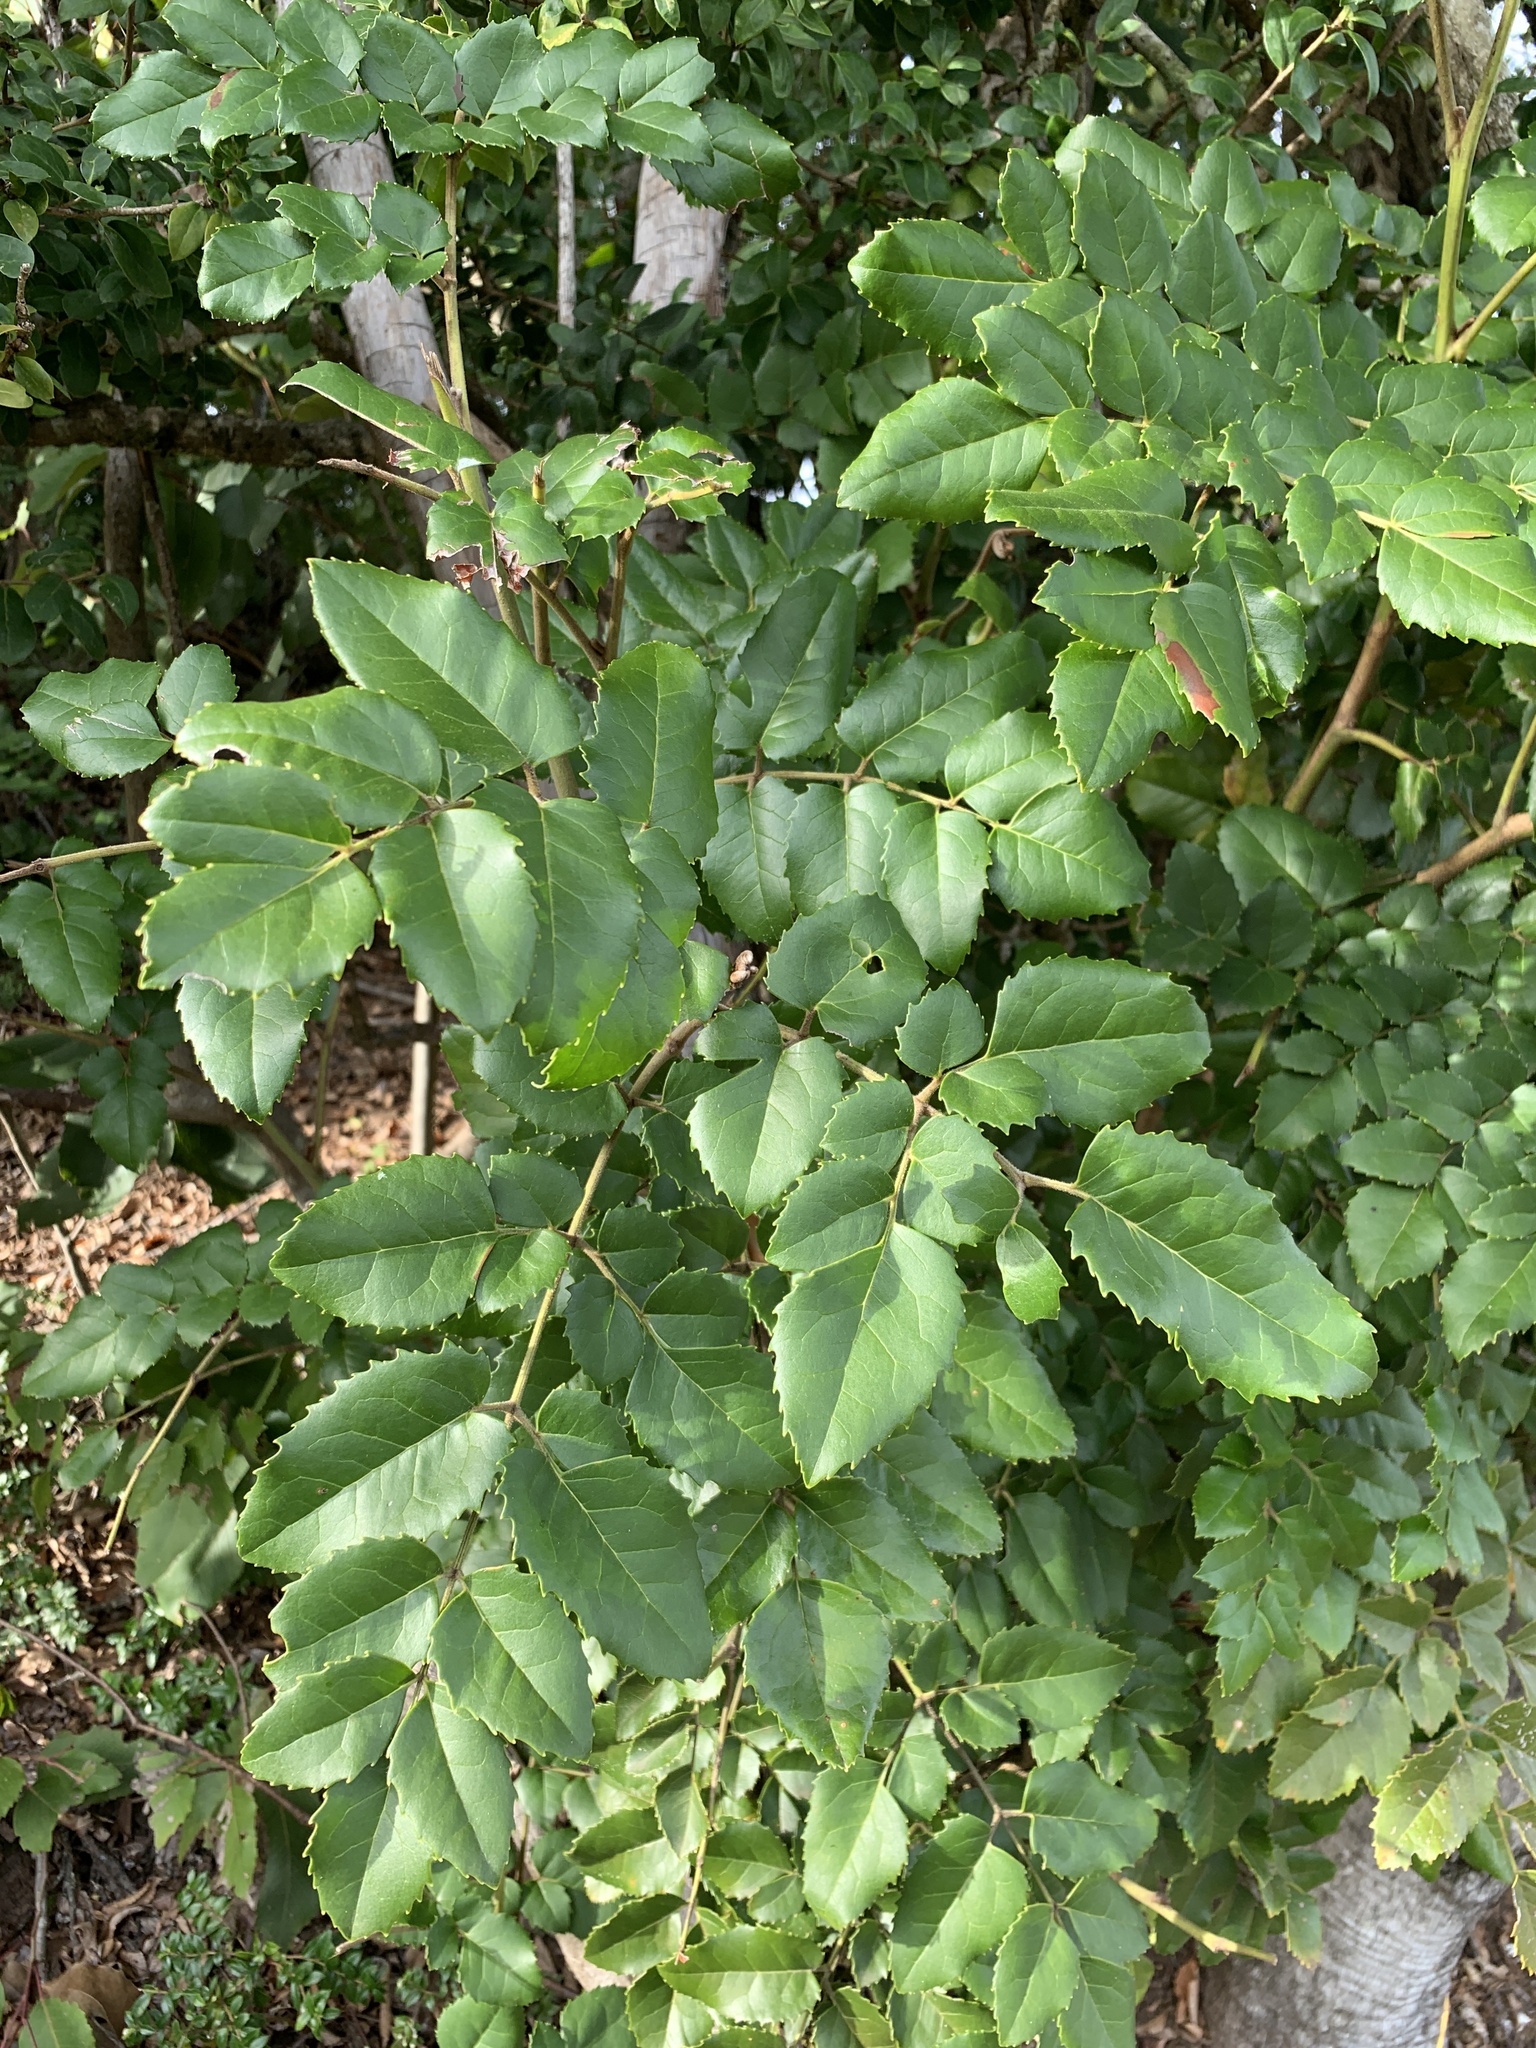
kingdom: Plantae
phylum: Tracheophyta
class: Magnoliopsida
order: Proteales
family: Proteaceae
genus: Gevuina
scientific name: Gevuina avellana
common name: Chilean hazel
